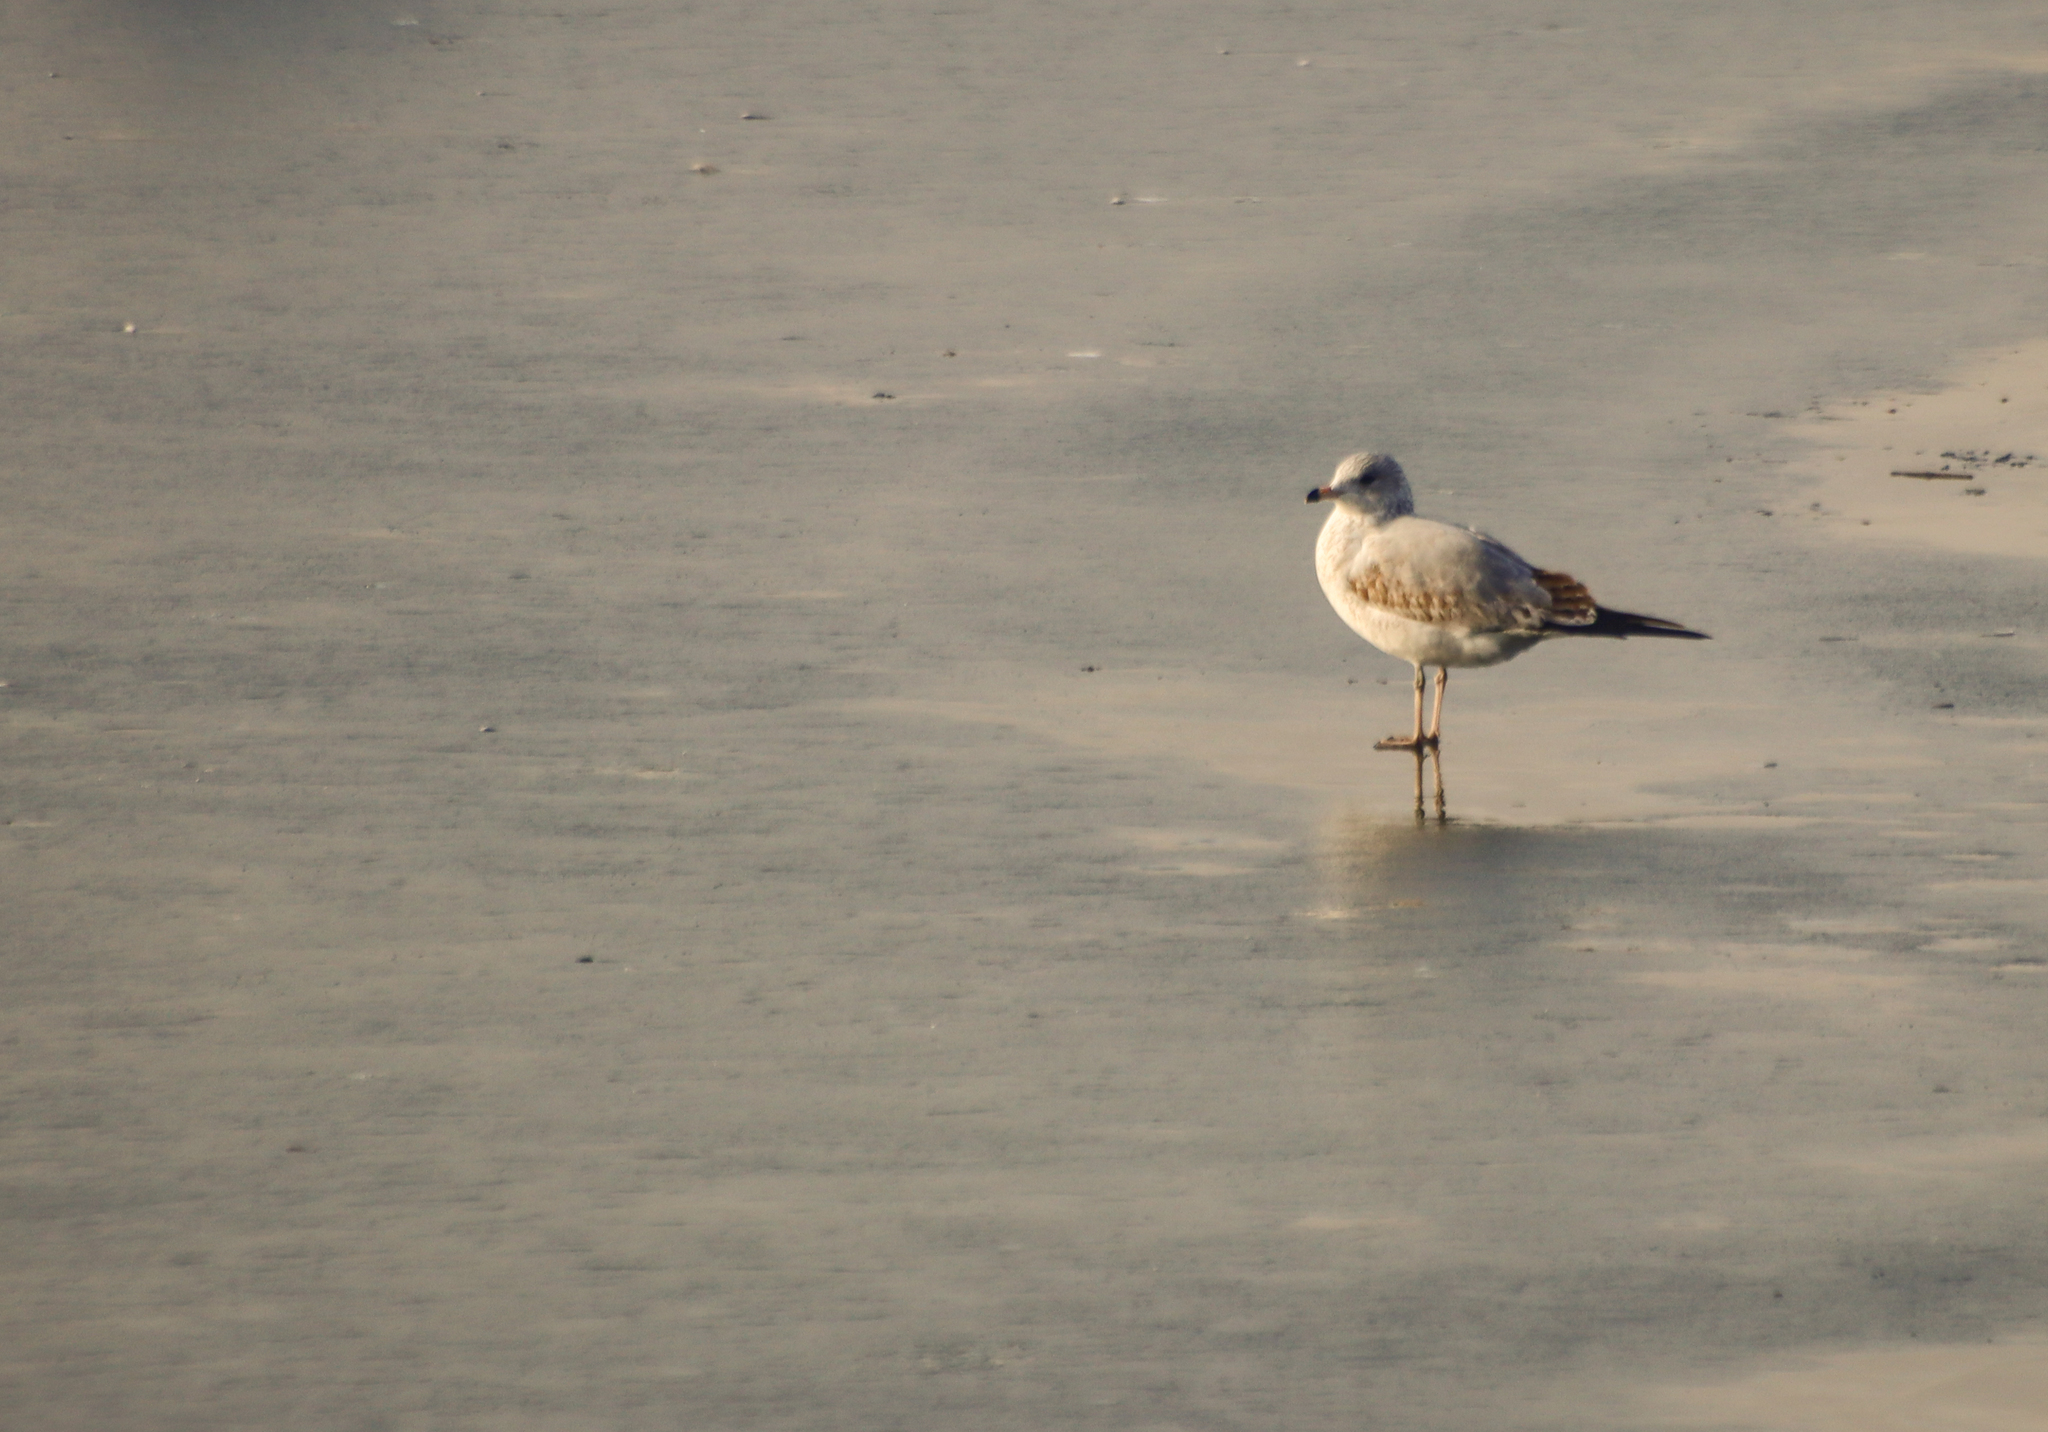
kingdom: Animalia
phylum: Chordata
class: Aves
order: Charadriiformes
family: Laridae
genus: Larus
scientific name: Larus delawarensis
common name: Ring-billed gull
